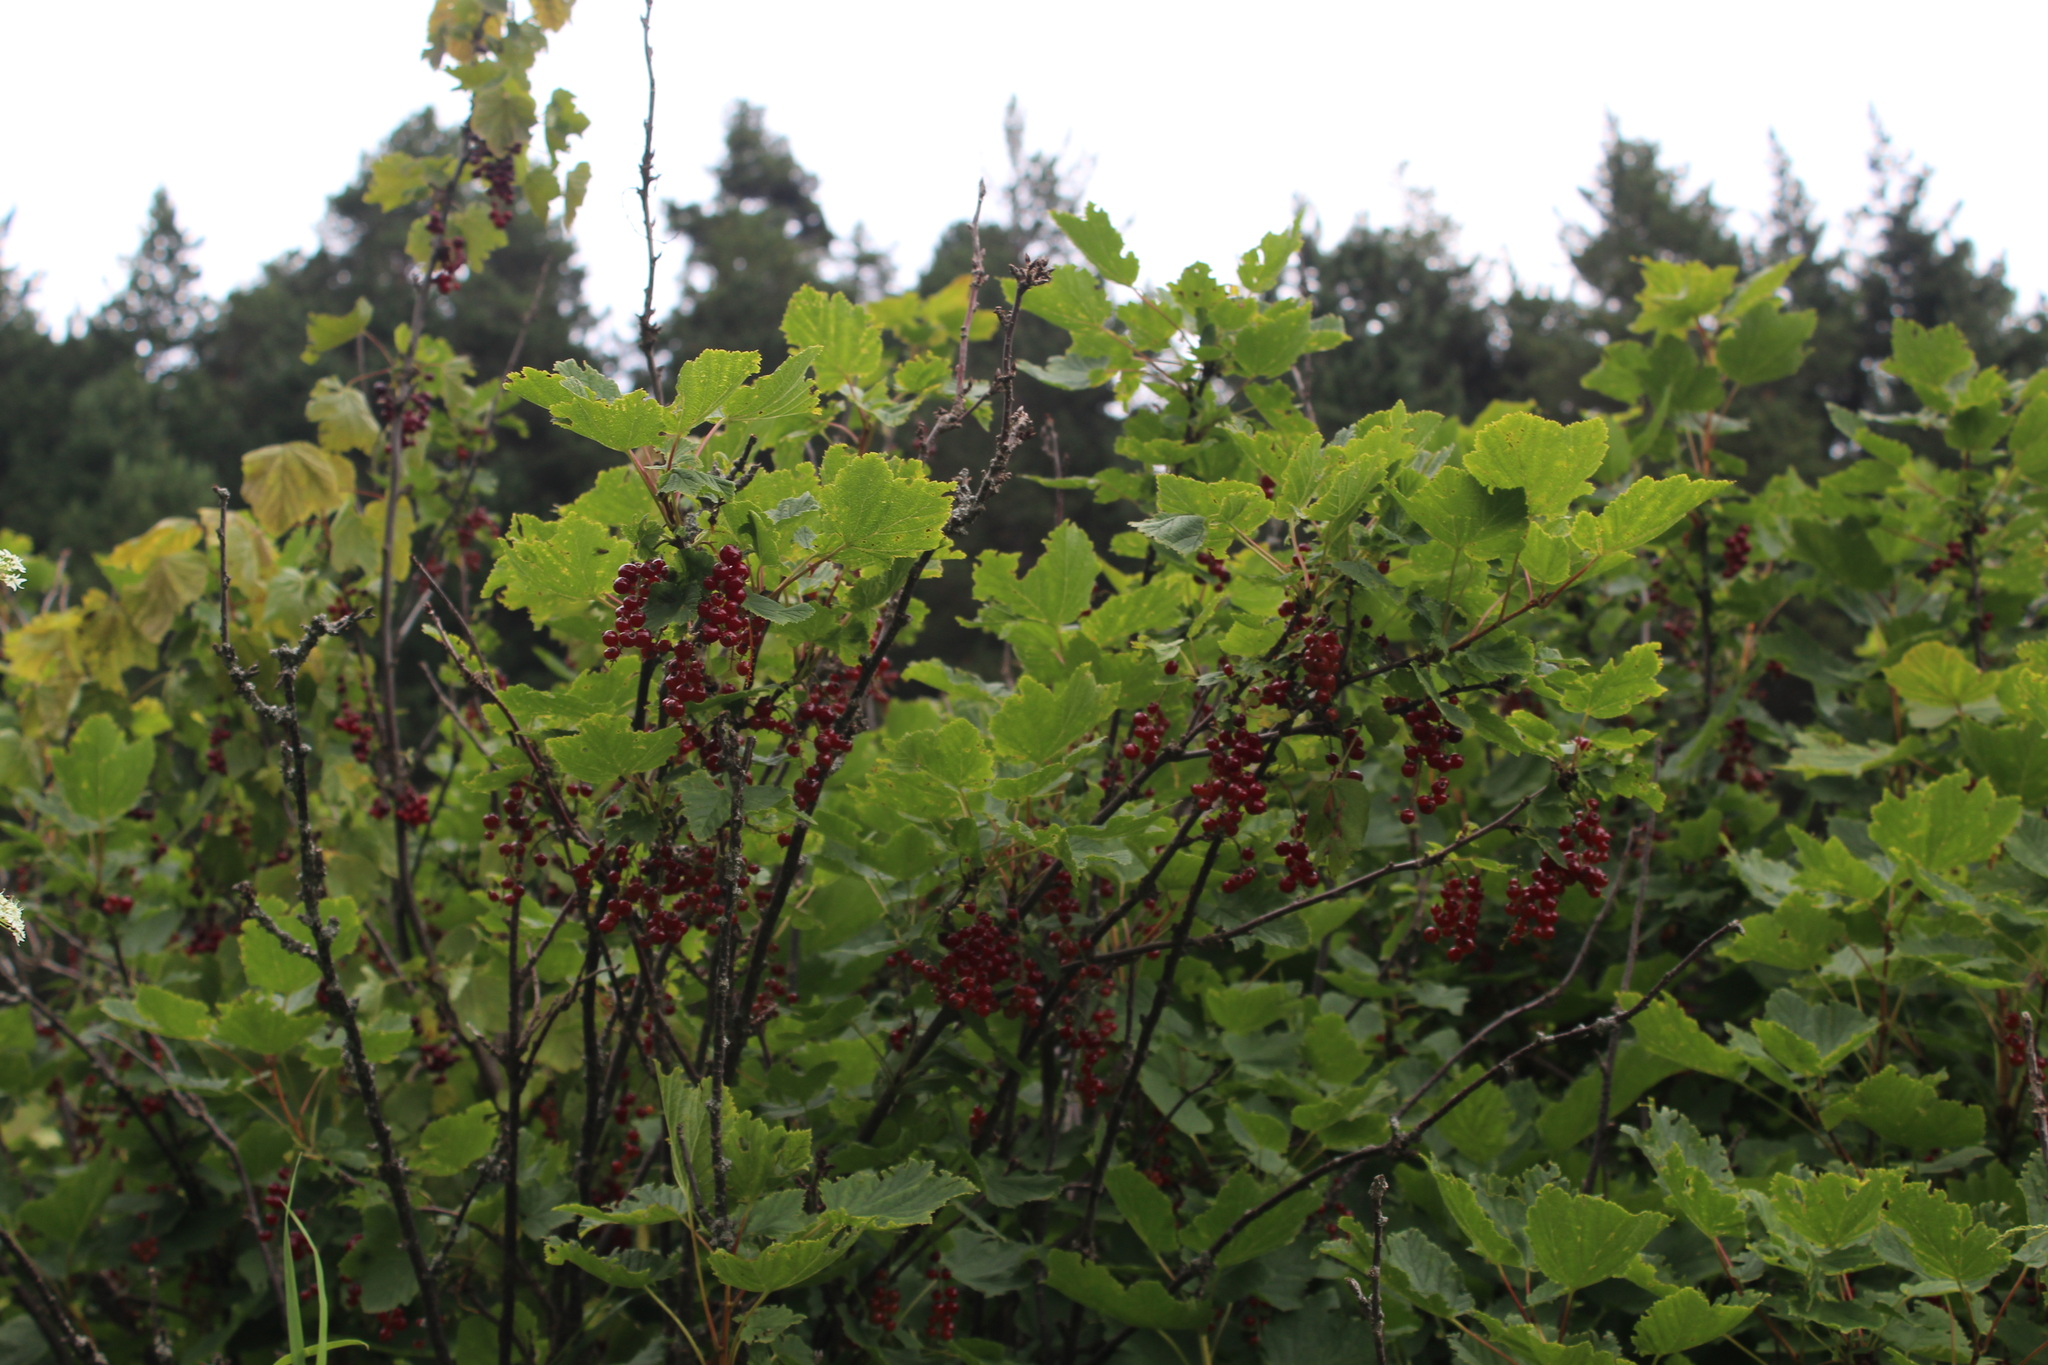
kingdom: Plantae
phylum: Tracheophyta
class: Magnoliopsida
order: Saxifragales
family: Grossulariaceae
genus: Ribes
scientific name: Ribes biebersteinii
